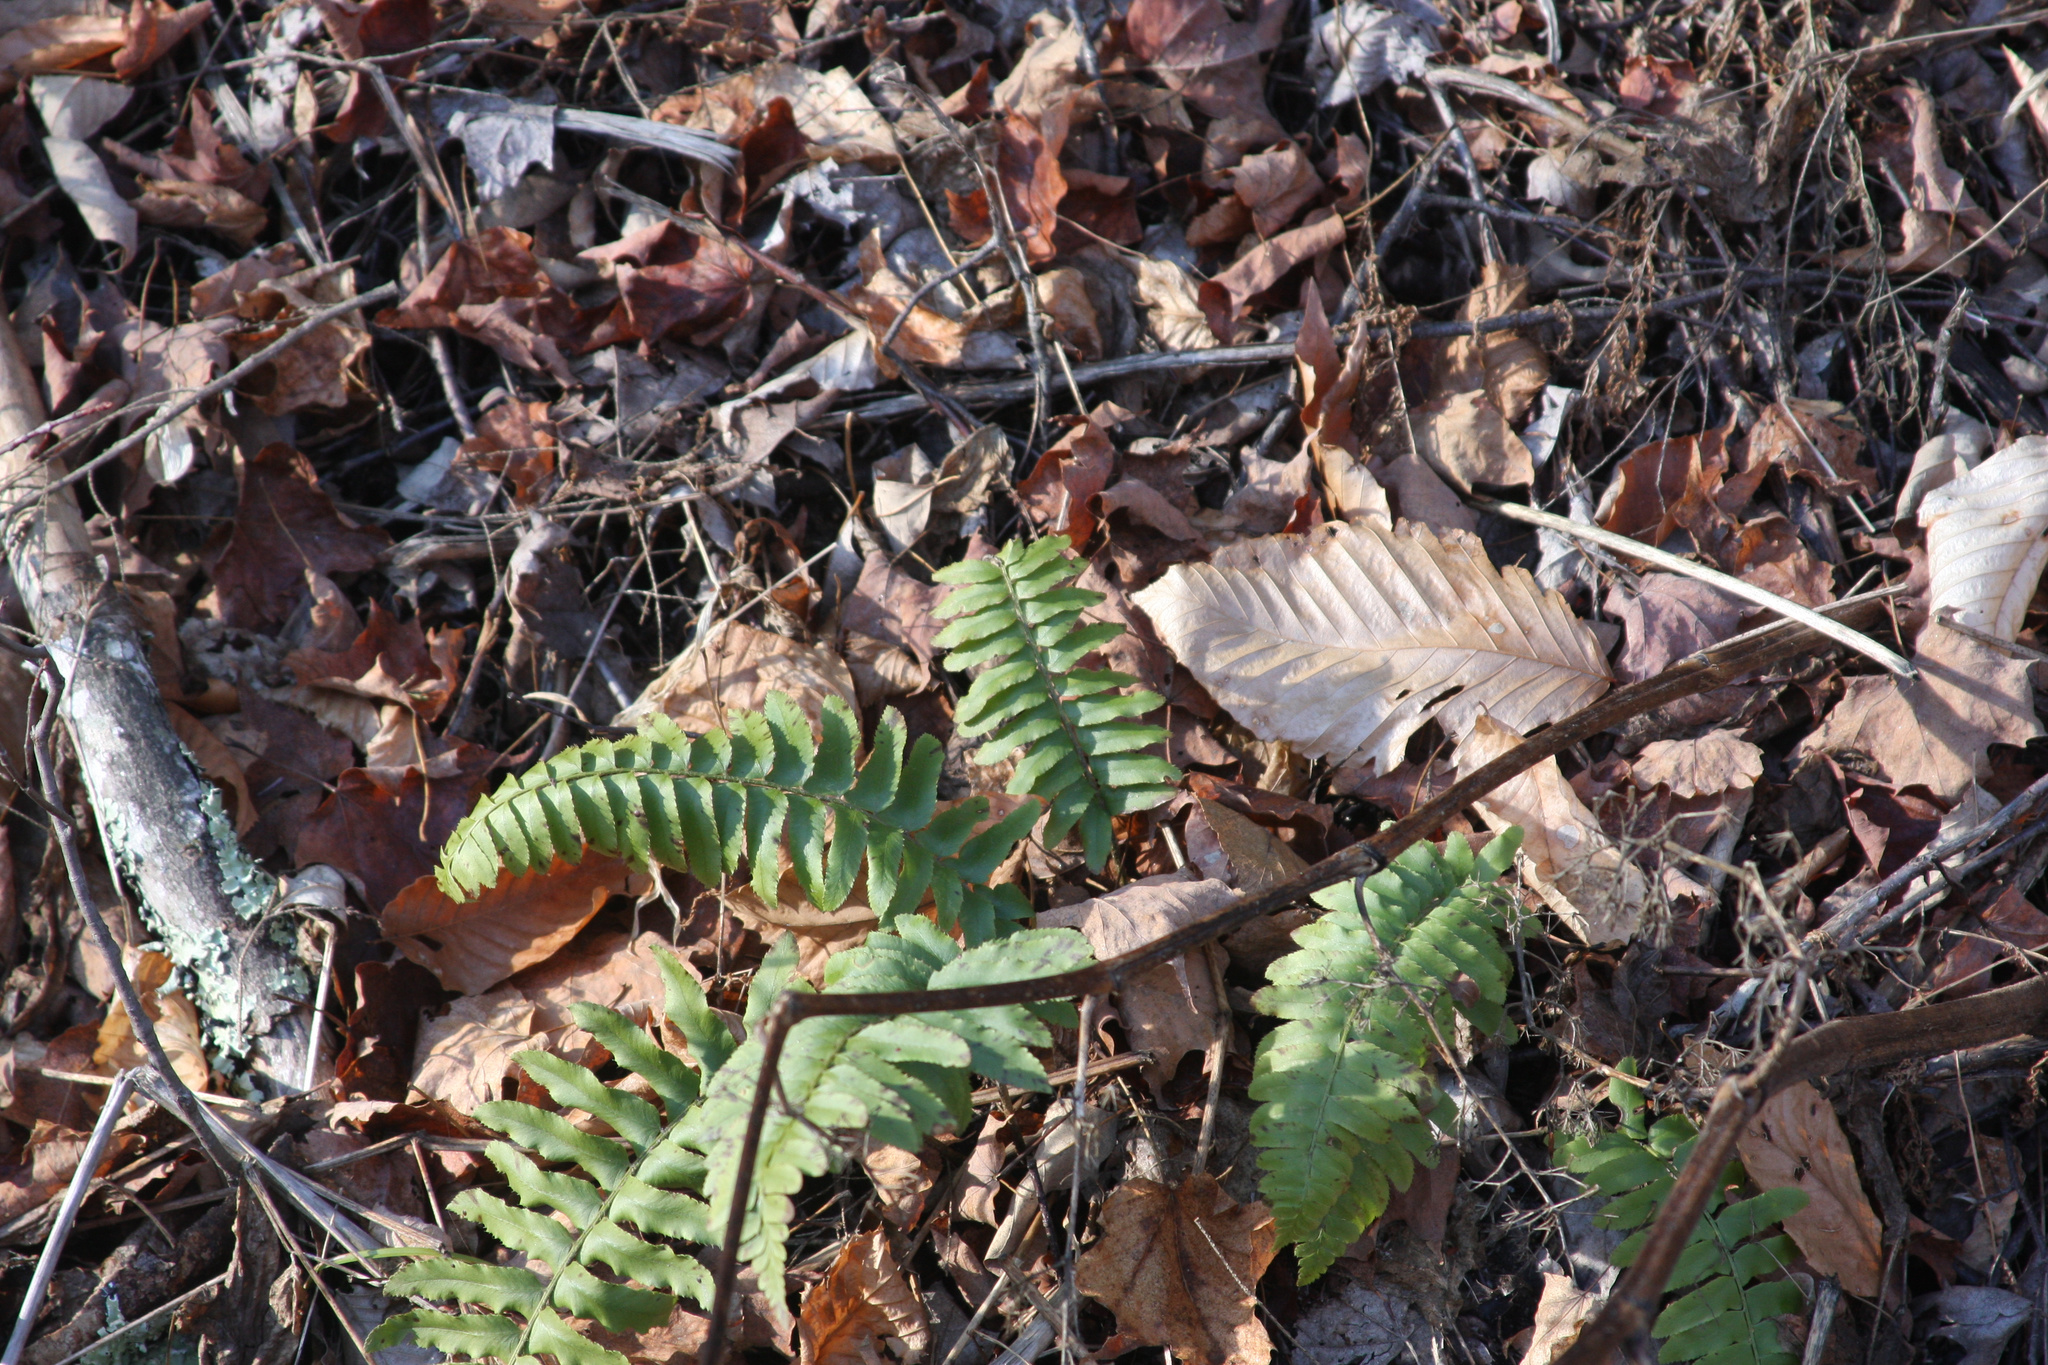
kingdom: Plantae
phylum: Tracheophyta
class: Polypodiopsida
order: Polypodiales
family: Dryopteridaceae
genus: Polystichum
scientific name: Polystichum acrostichoides
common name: Christmas fern
